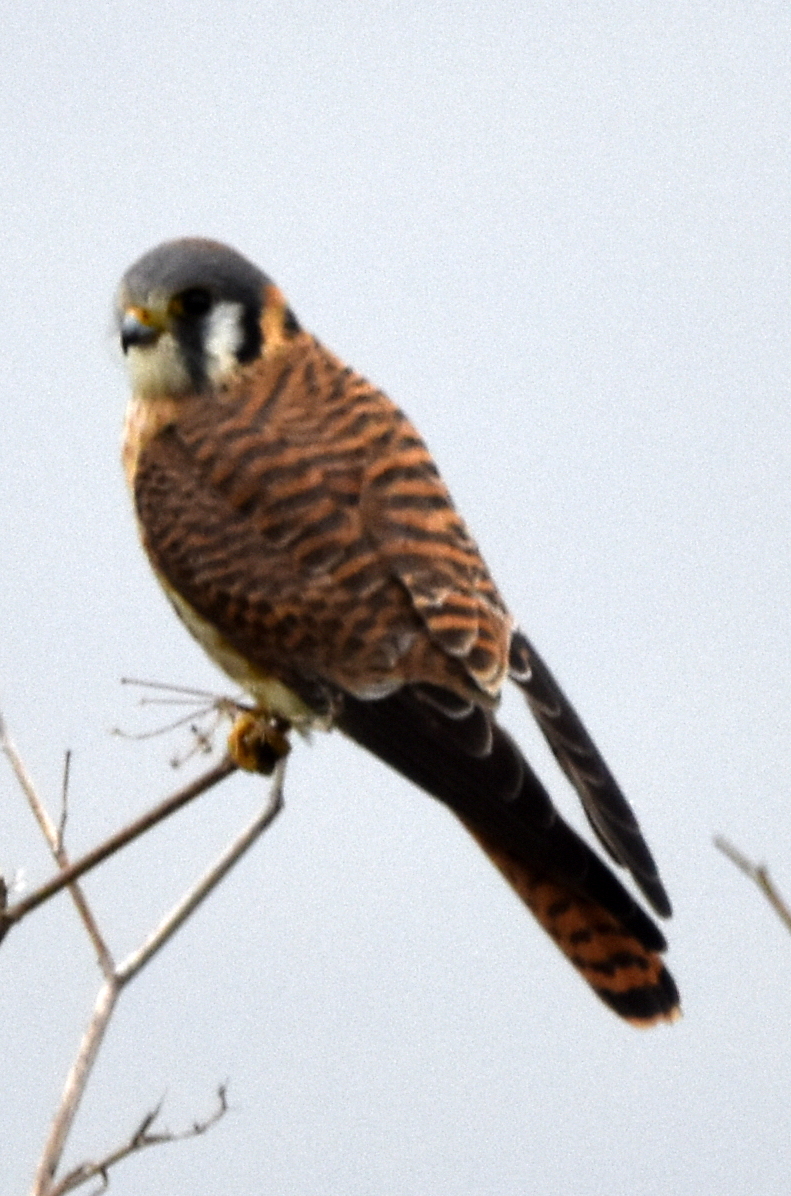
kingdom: Animalia
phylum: Chordata
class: Aves
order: Falconiformes
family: Falconidae
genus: Falco
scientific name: Falco sparverius
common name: American kestrel
